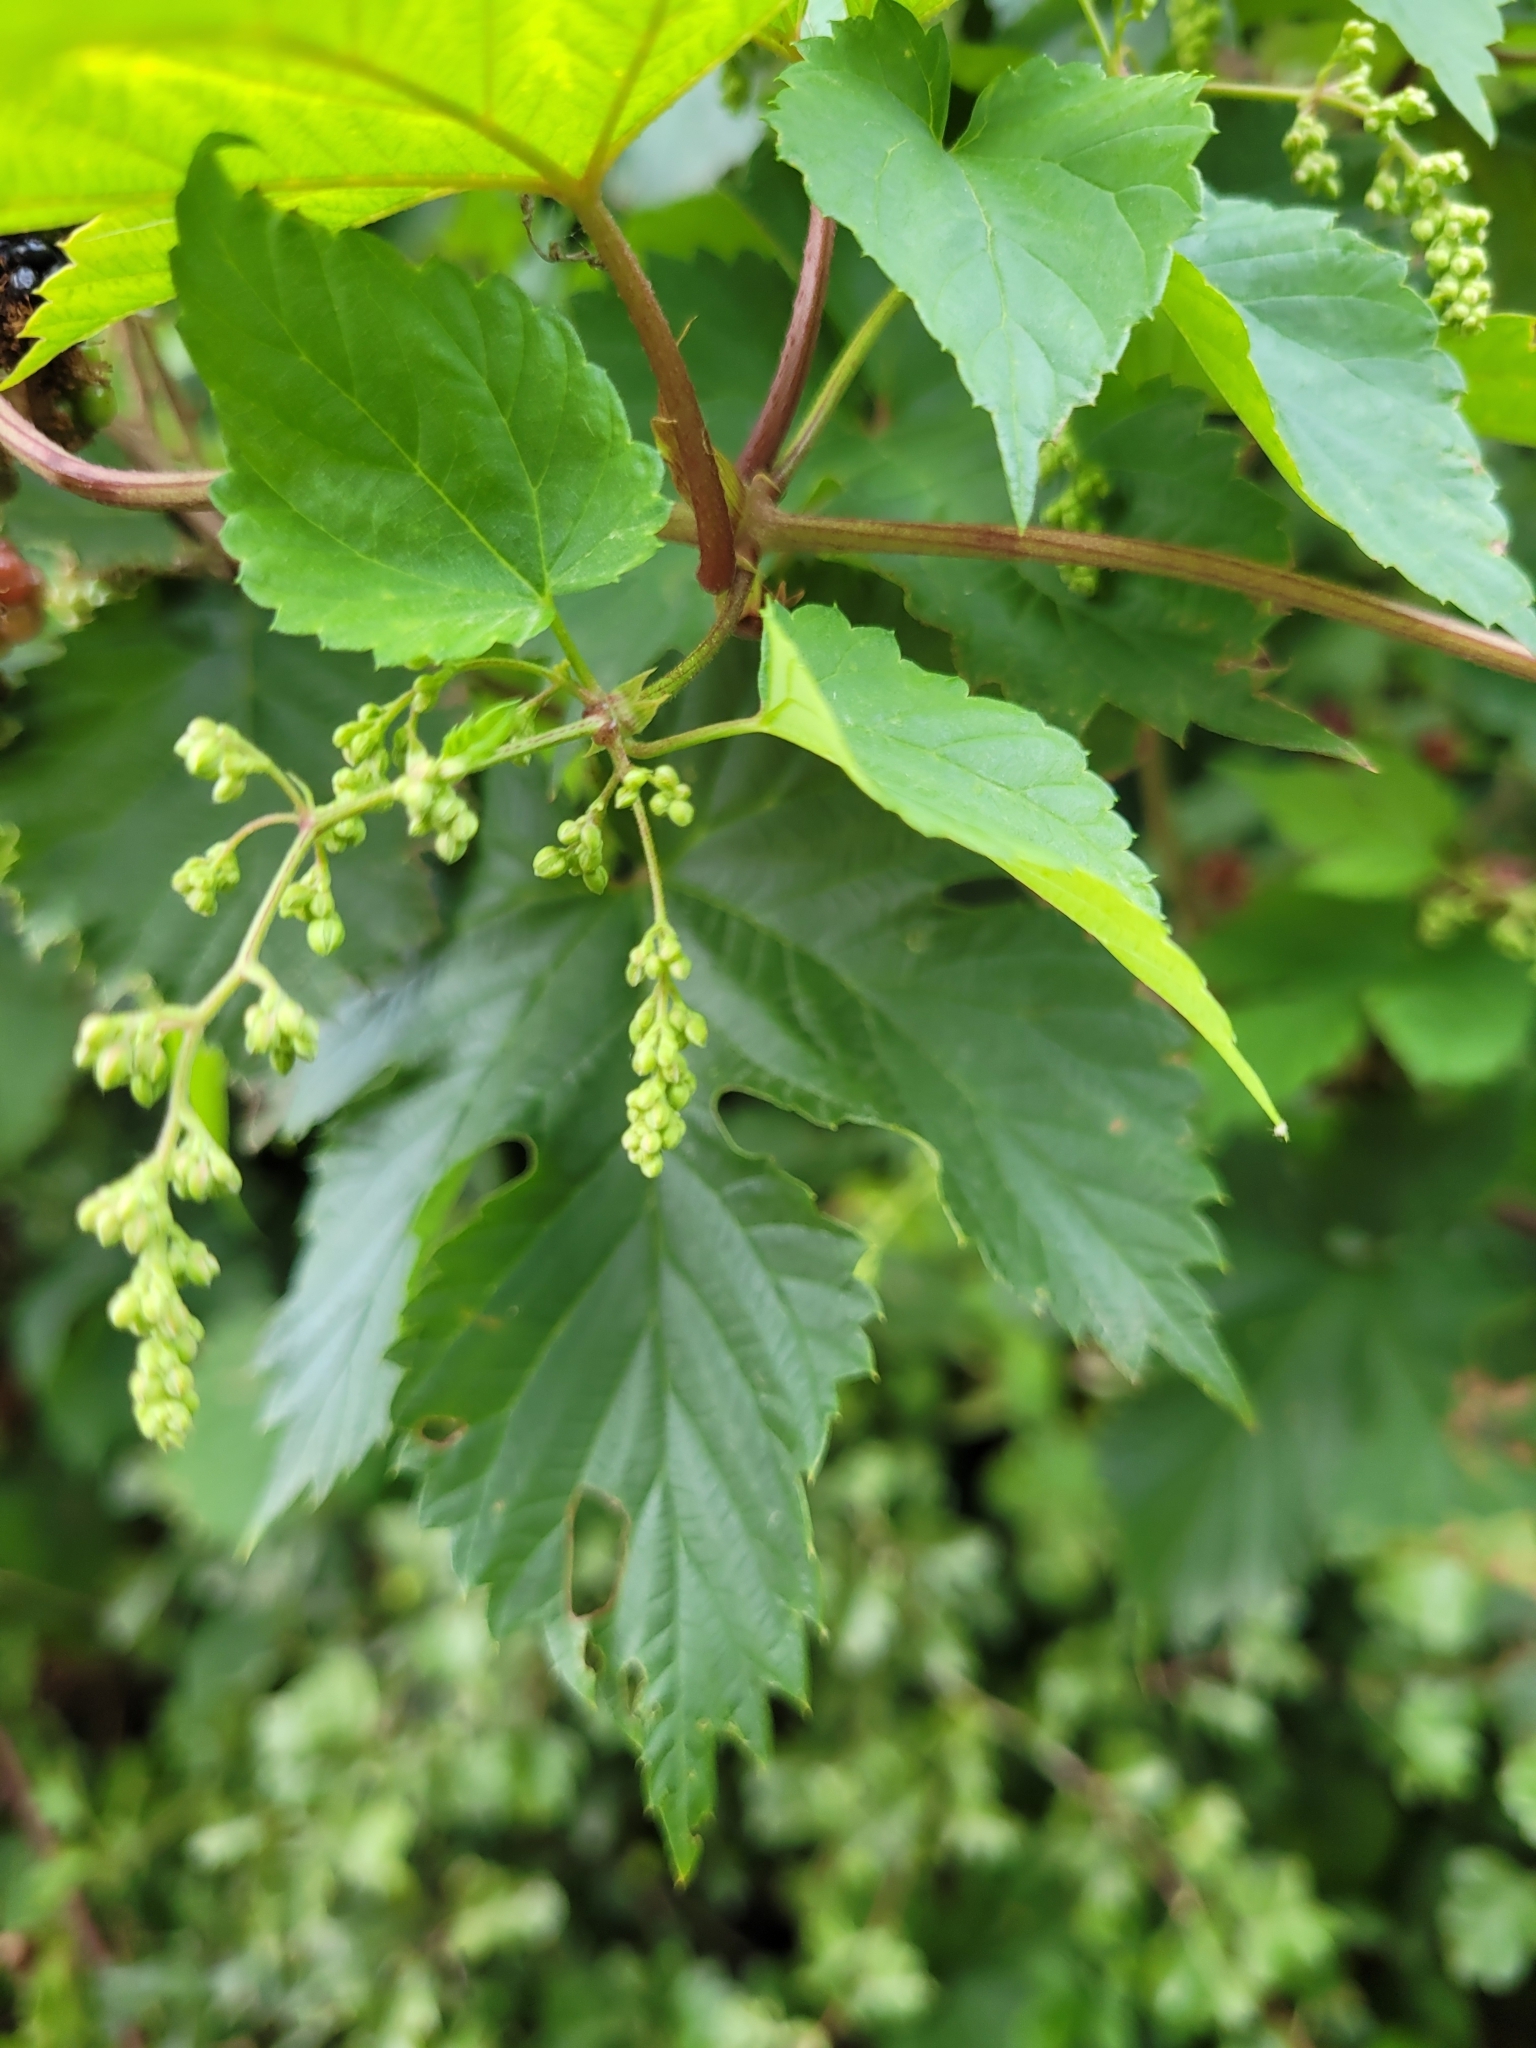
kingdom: Plantae
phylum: Tracheophyta
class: Magnoliopsida
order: Rosales
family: Cannabaceae
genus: Humulus
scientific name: Humulus lupulus
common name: Hop
